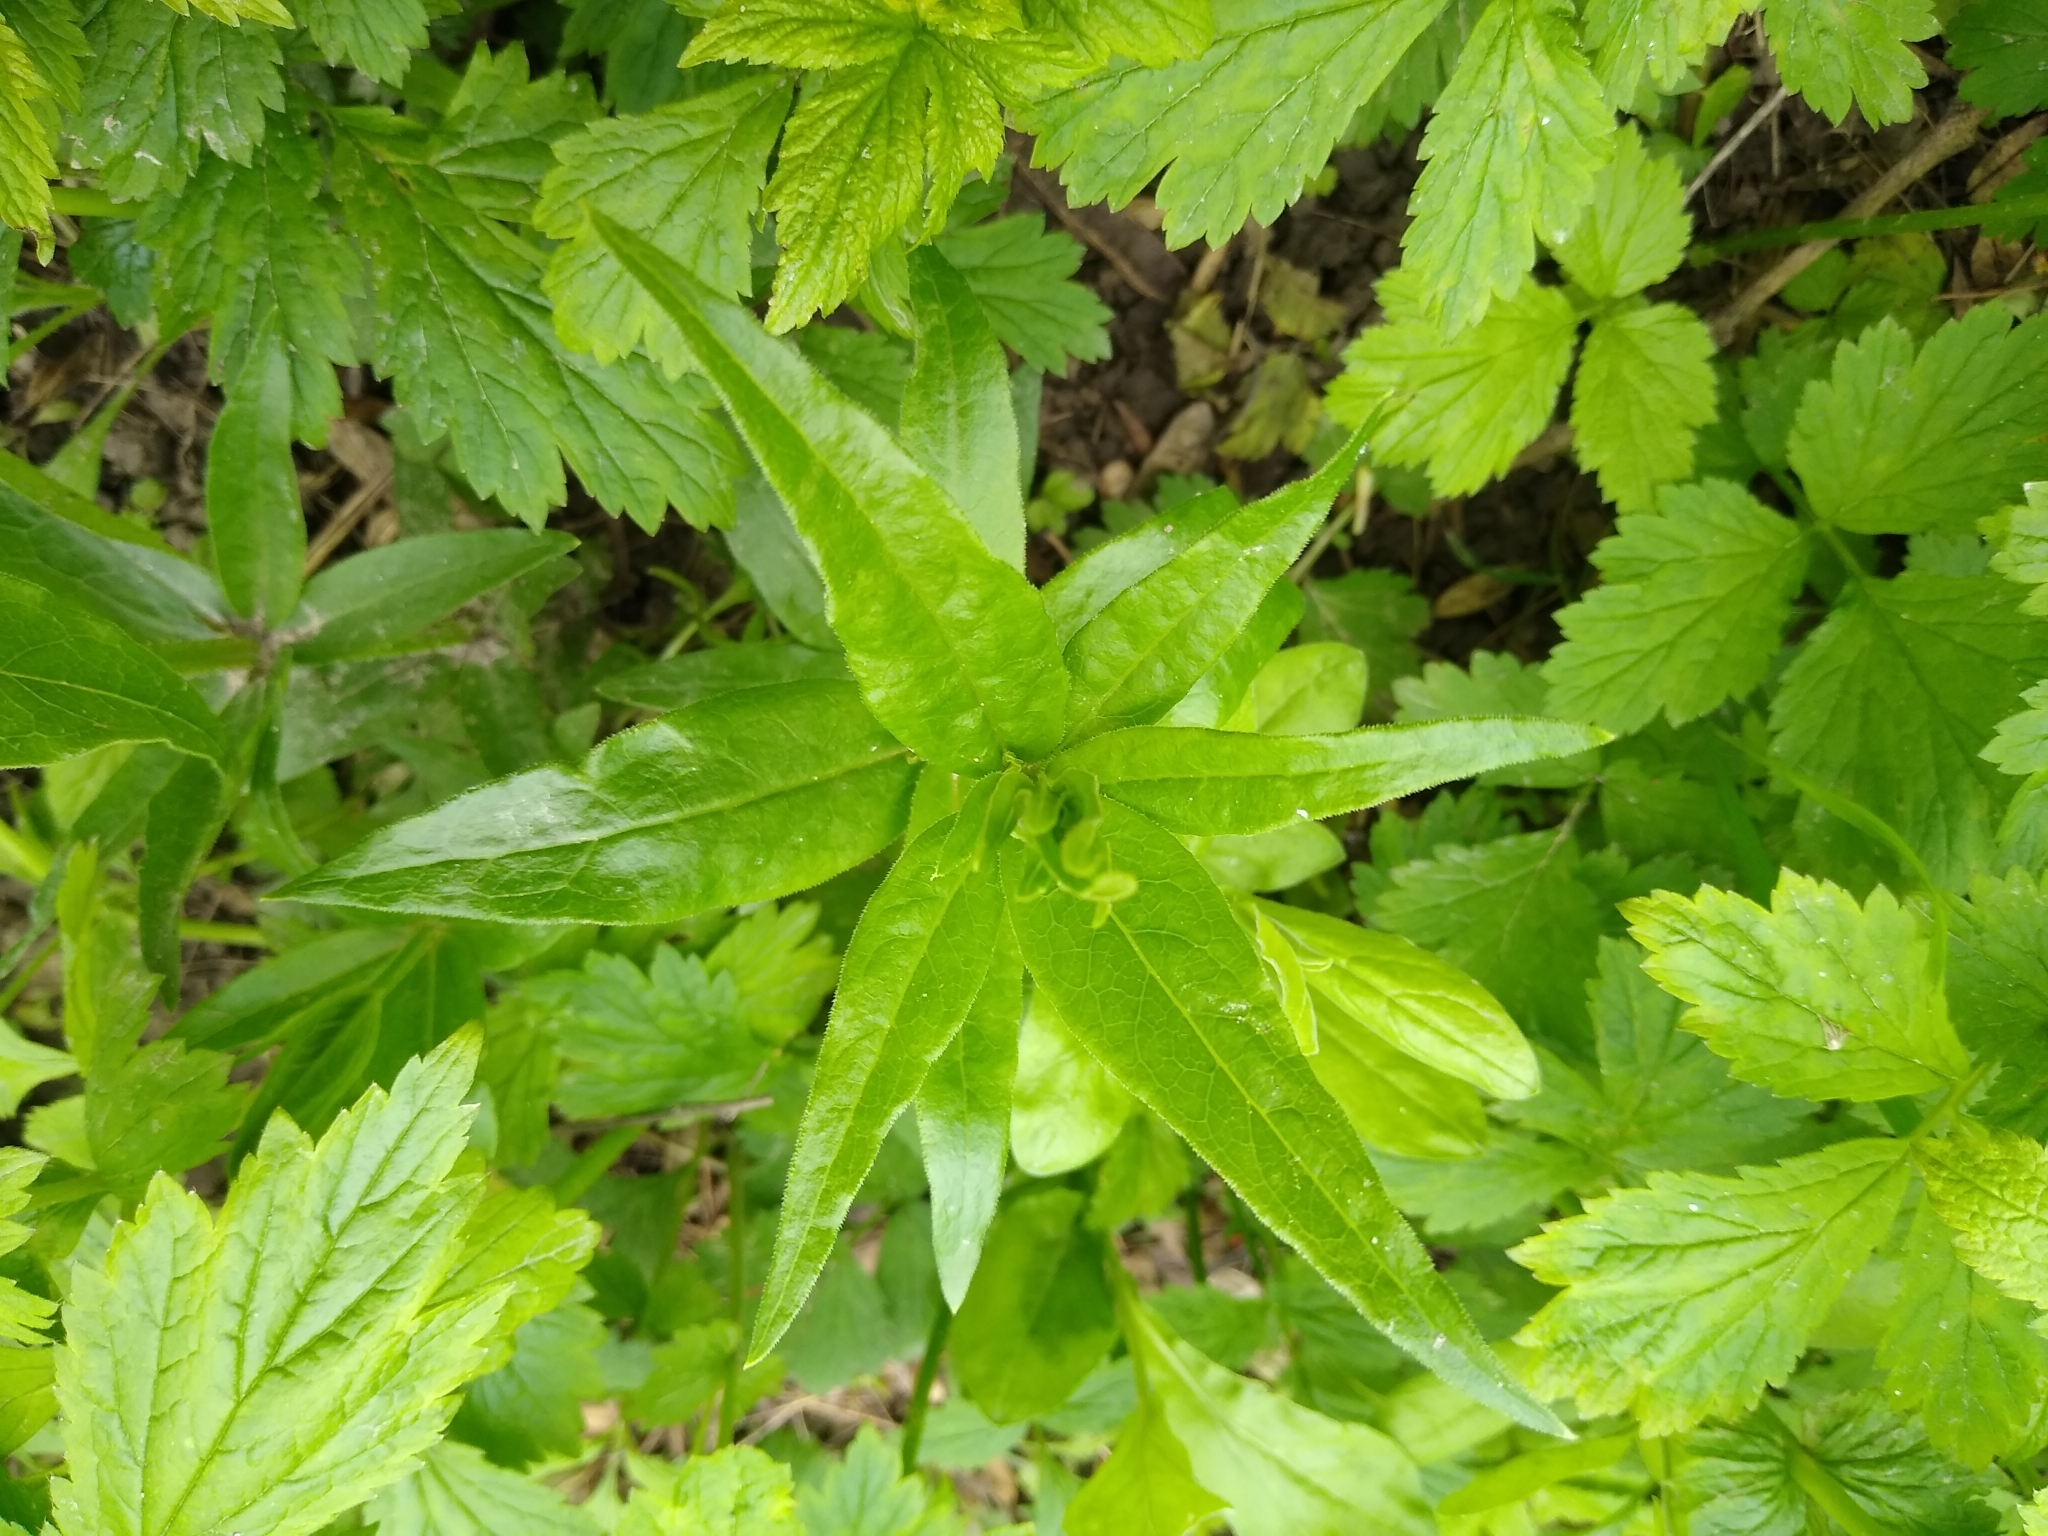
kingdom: Plantae
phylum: Tracheophyta
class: Magnoliopsida
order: Gentianales
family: Rubiaceae
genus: Rubia
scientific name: Rubia tinctorum
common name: Dyer's madder
